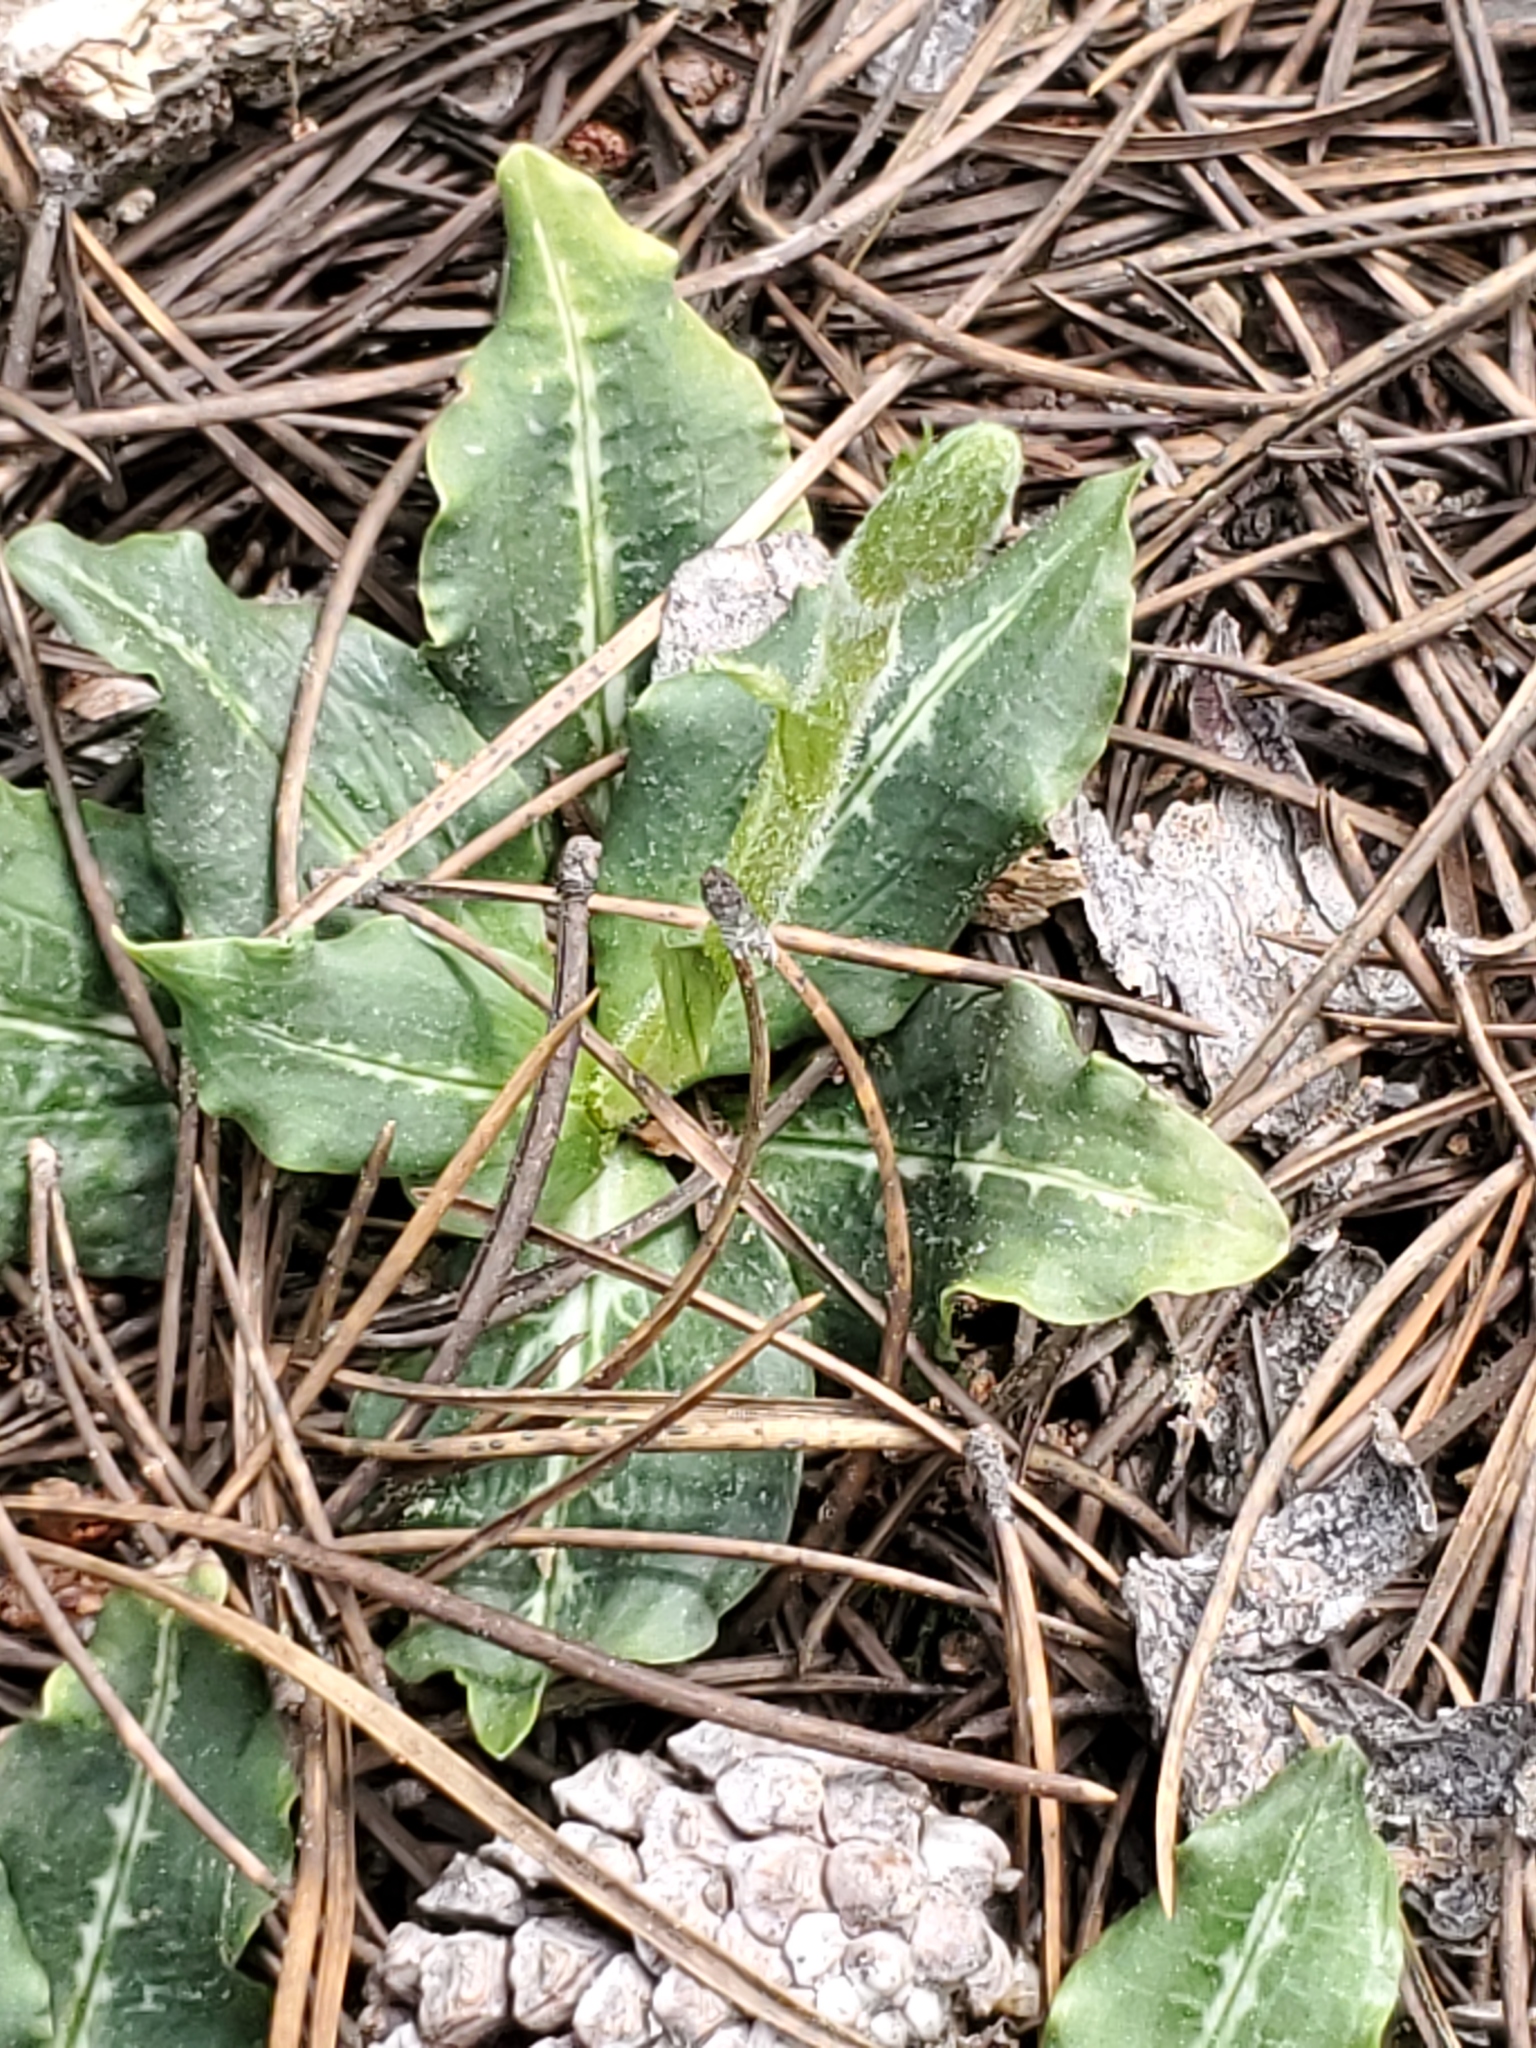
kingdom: Plantae
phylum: Tracheophyta
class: Liliopsida
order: Asparagales
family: Orchidaceae
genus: Goodyera
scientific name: Goodyera oblongifolia
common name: Giant rattlesnake-plantain
